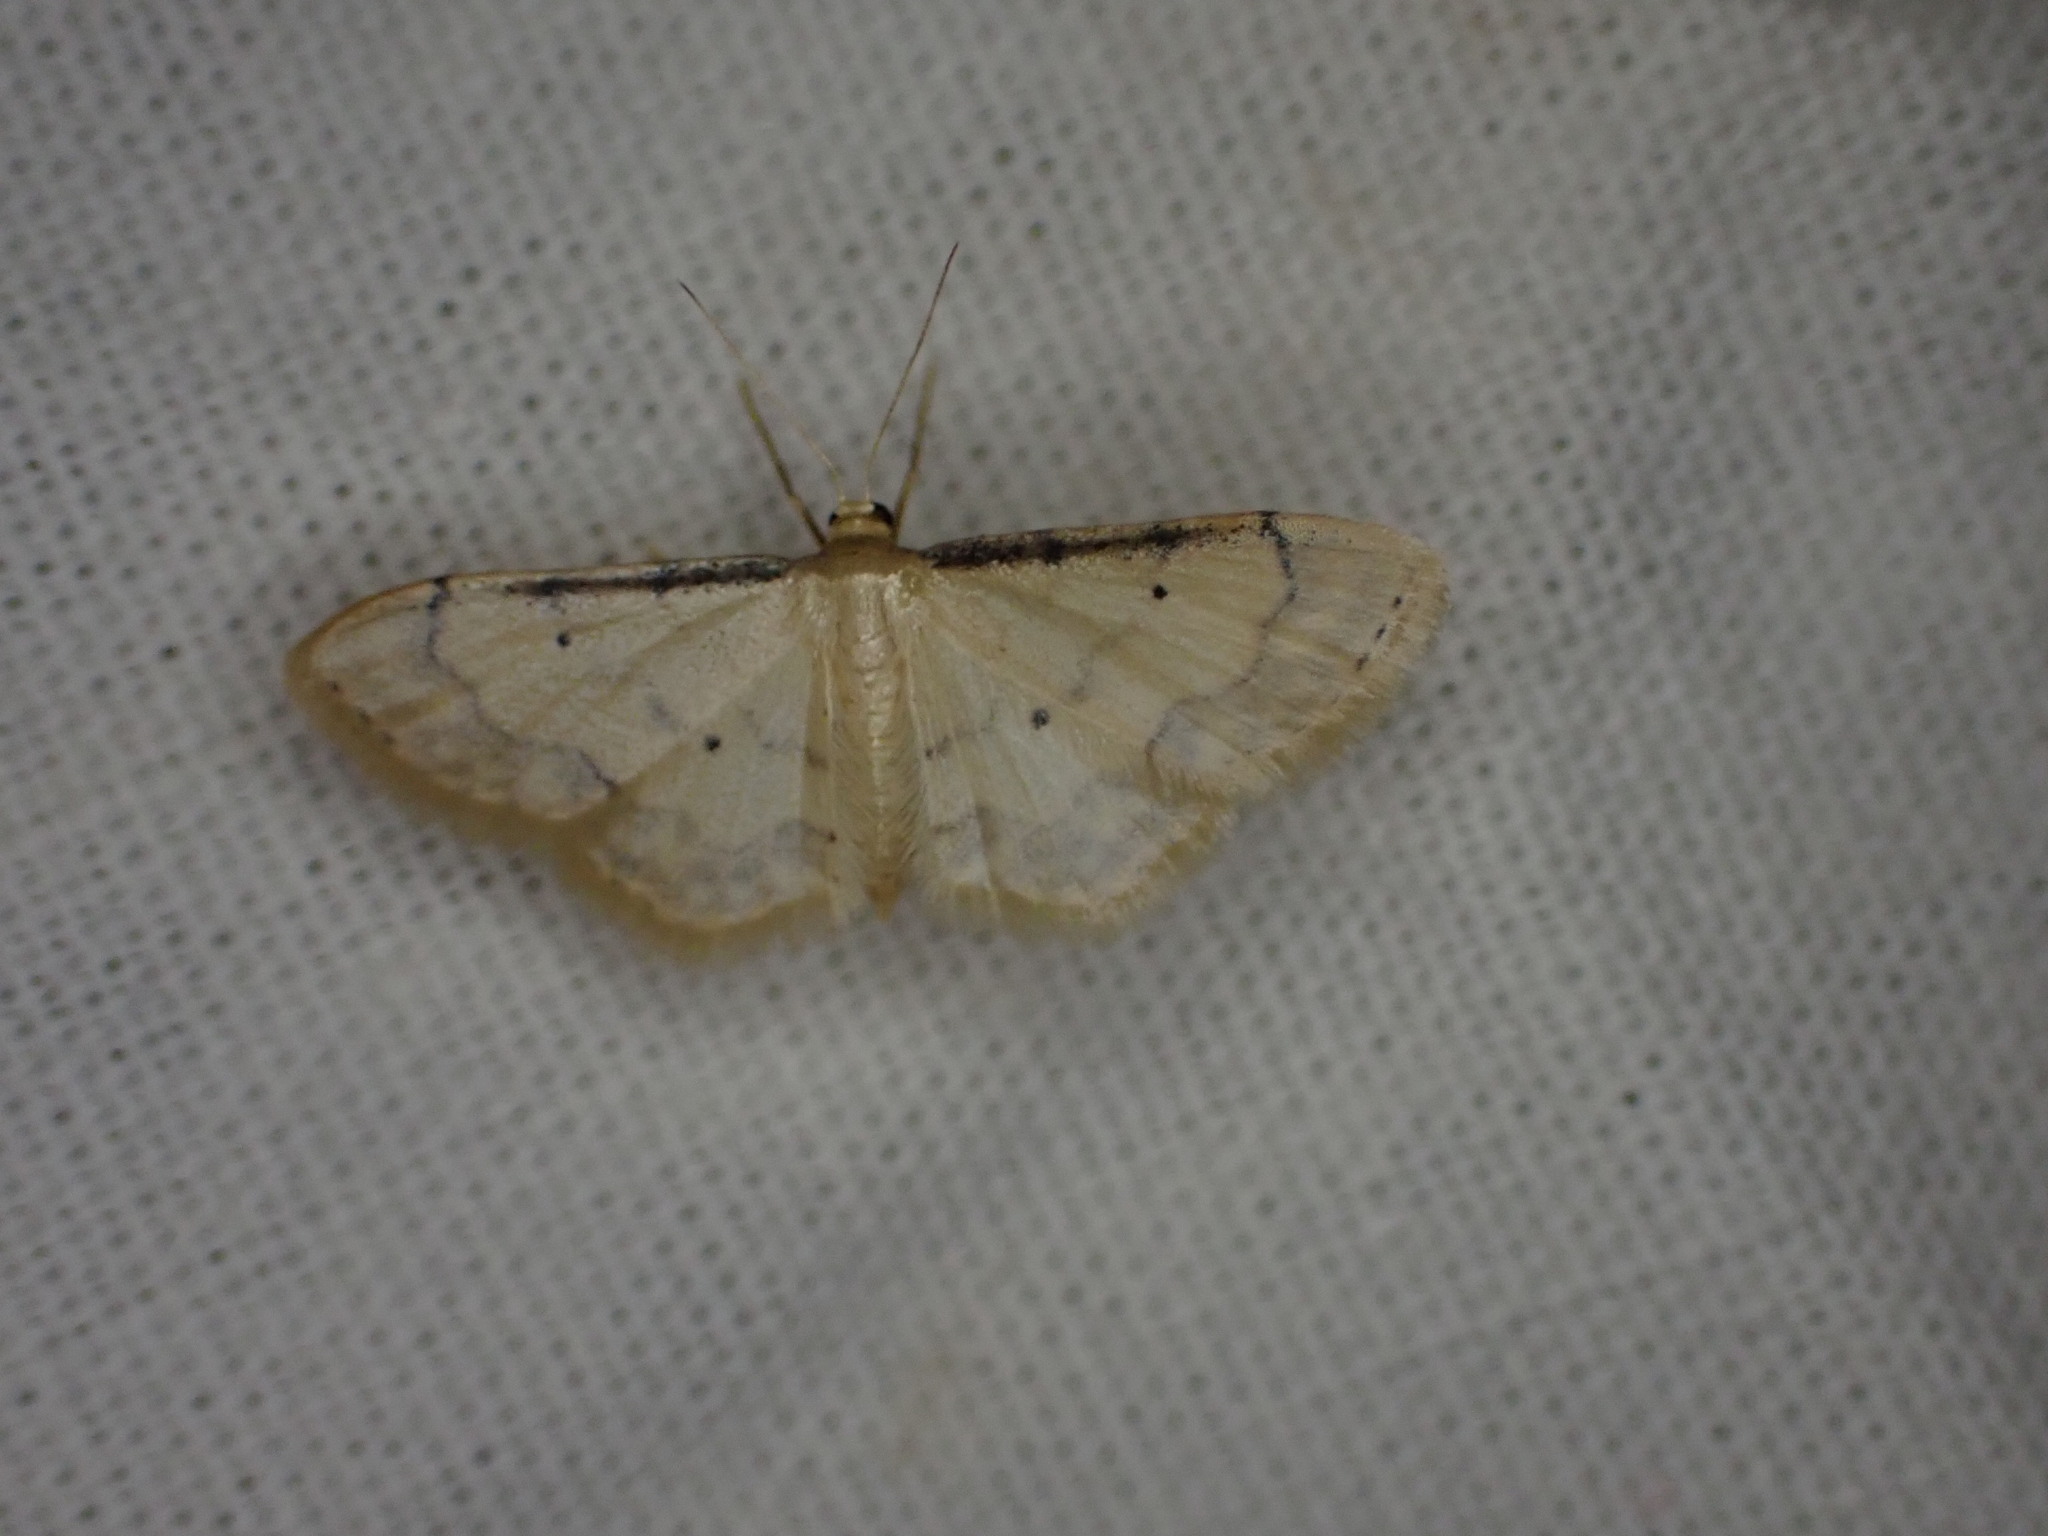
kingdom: Animalia
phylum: Arthropoda
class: Insecta
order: Lepidoptera
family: Geometridae
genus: Idaea
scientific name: Idaea politaria
